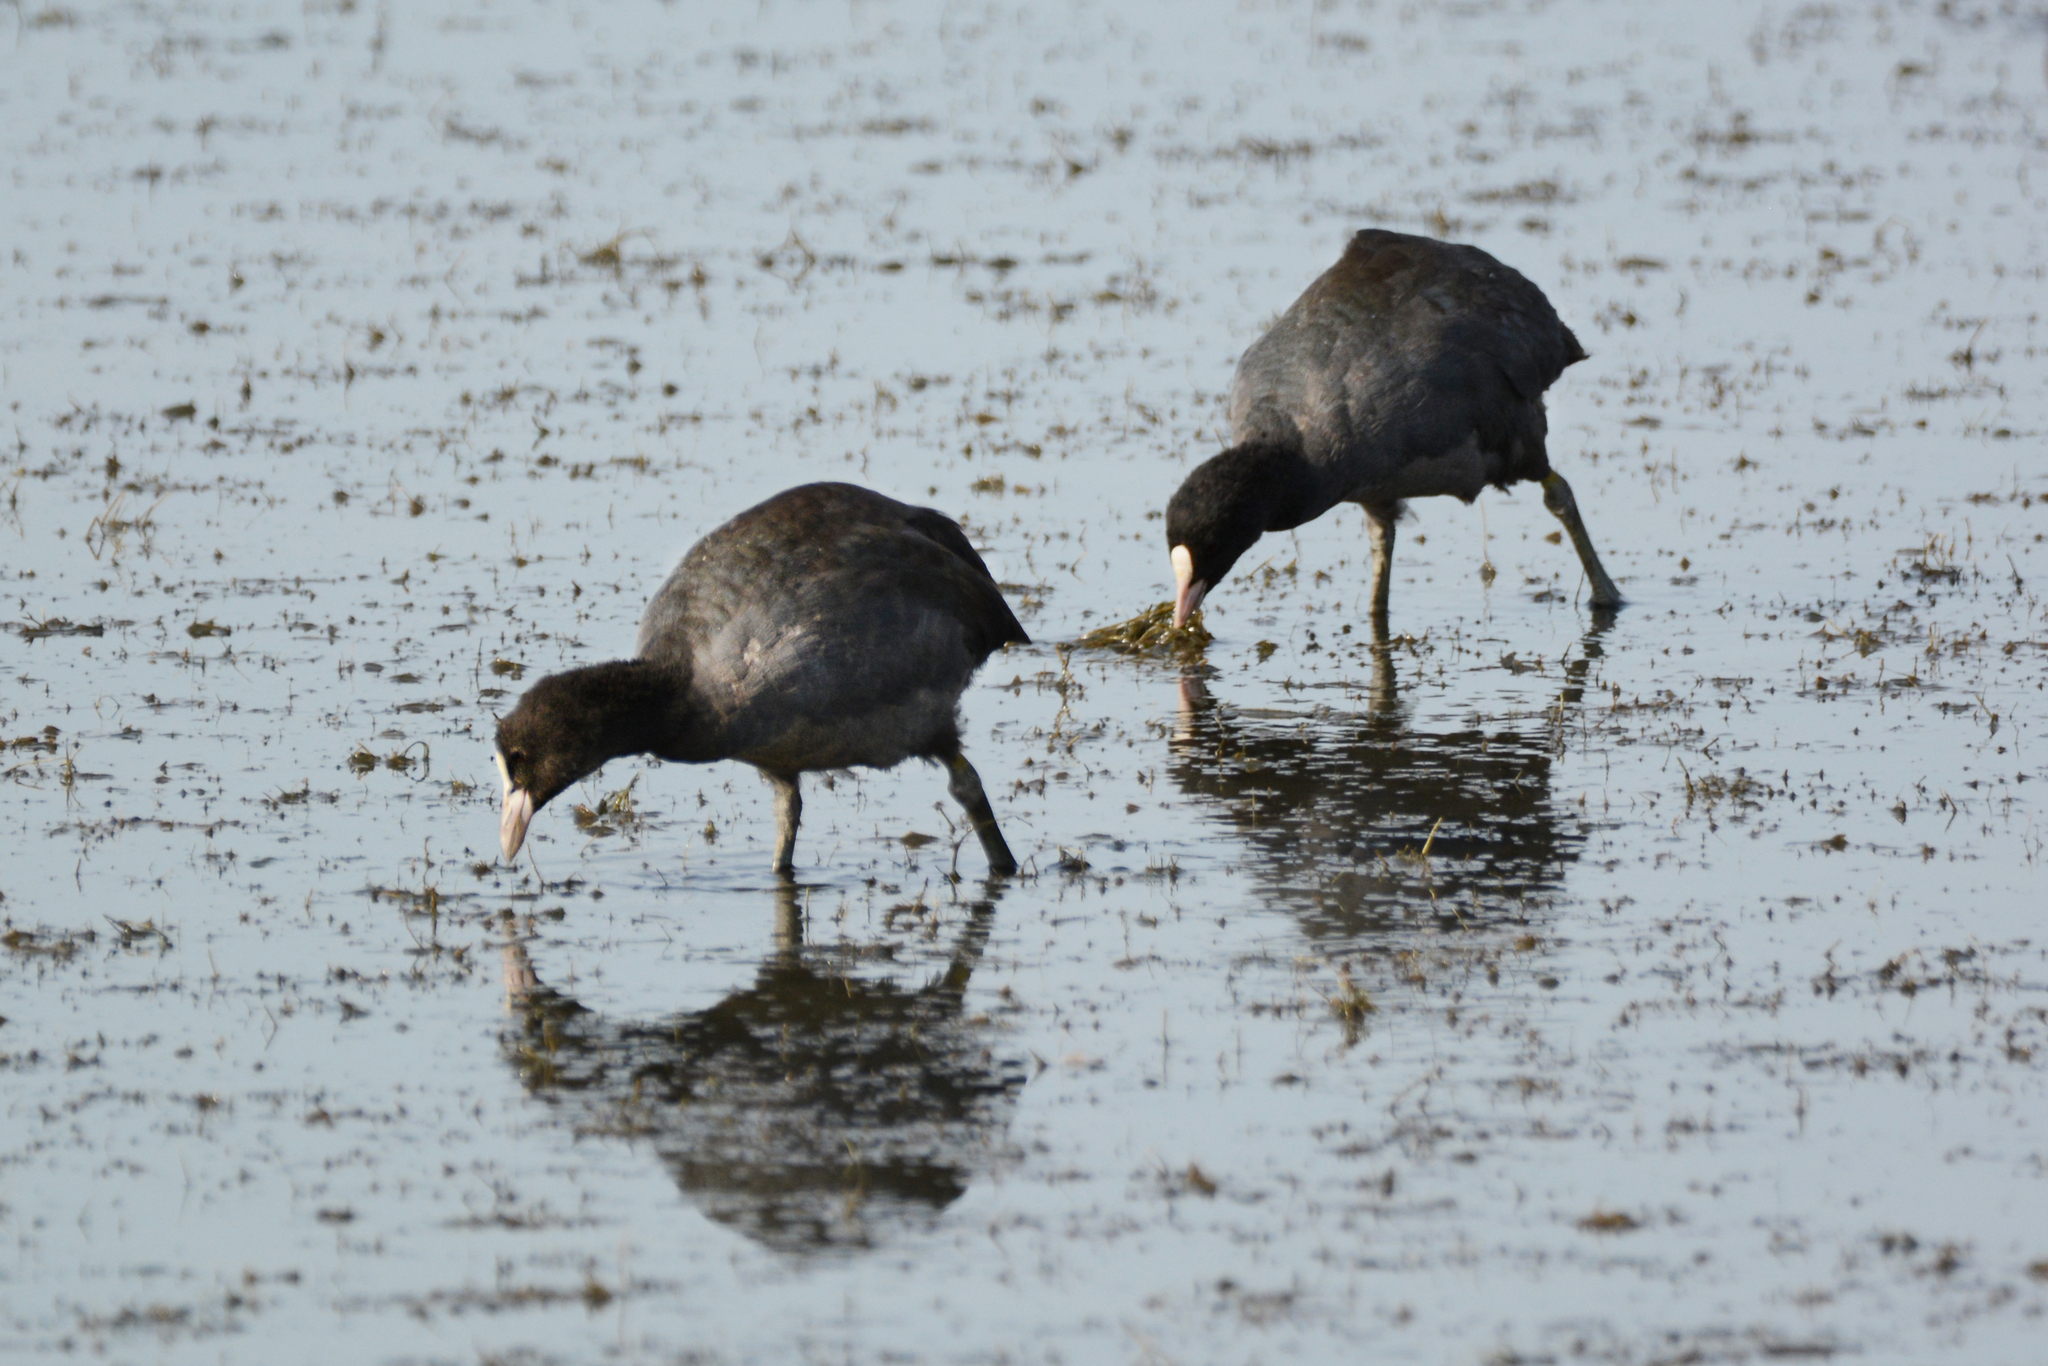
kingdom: Animalia
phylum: Chordata
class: Aves
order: Gruiformes
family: Rallidae
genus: Fulica
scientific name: Fulica atra
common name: Eurasian coot
